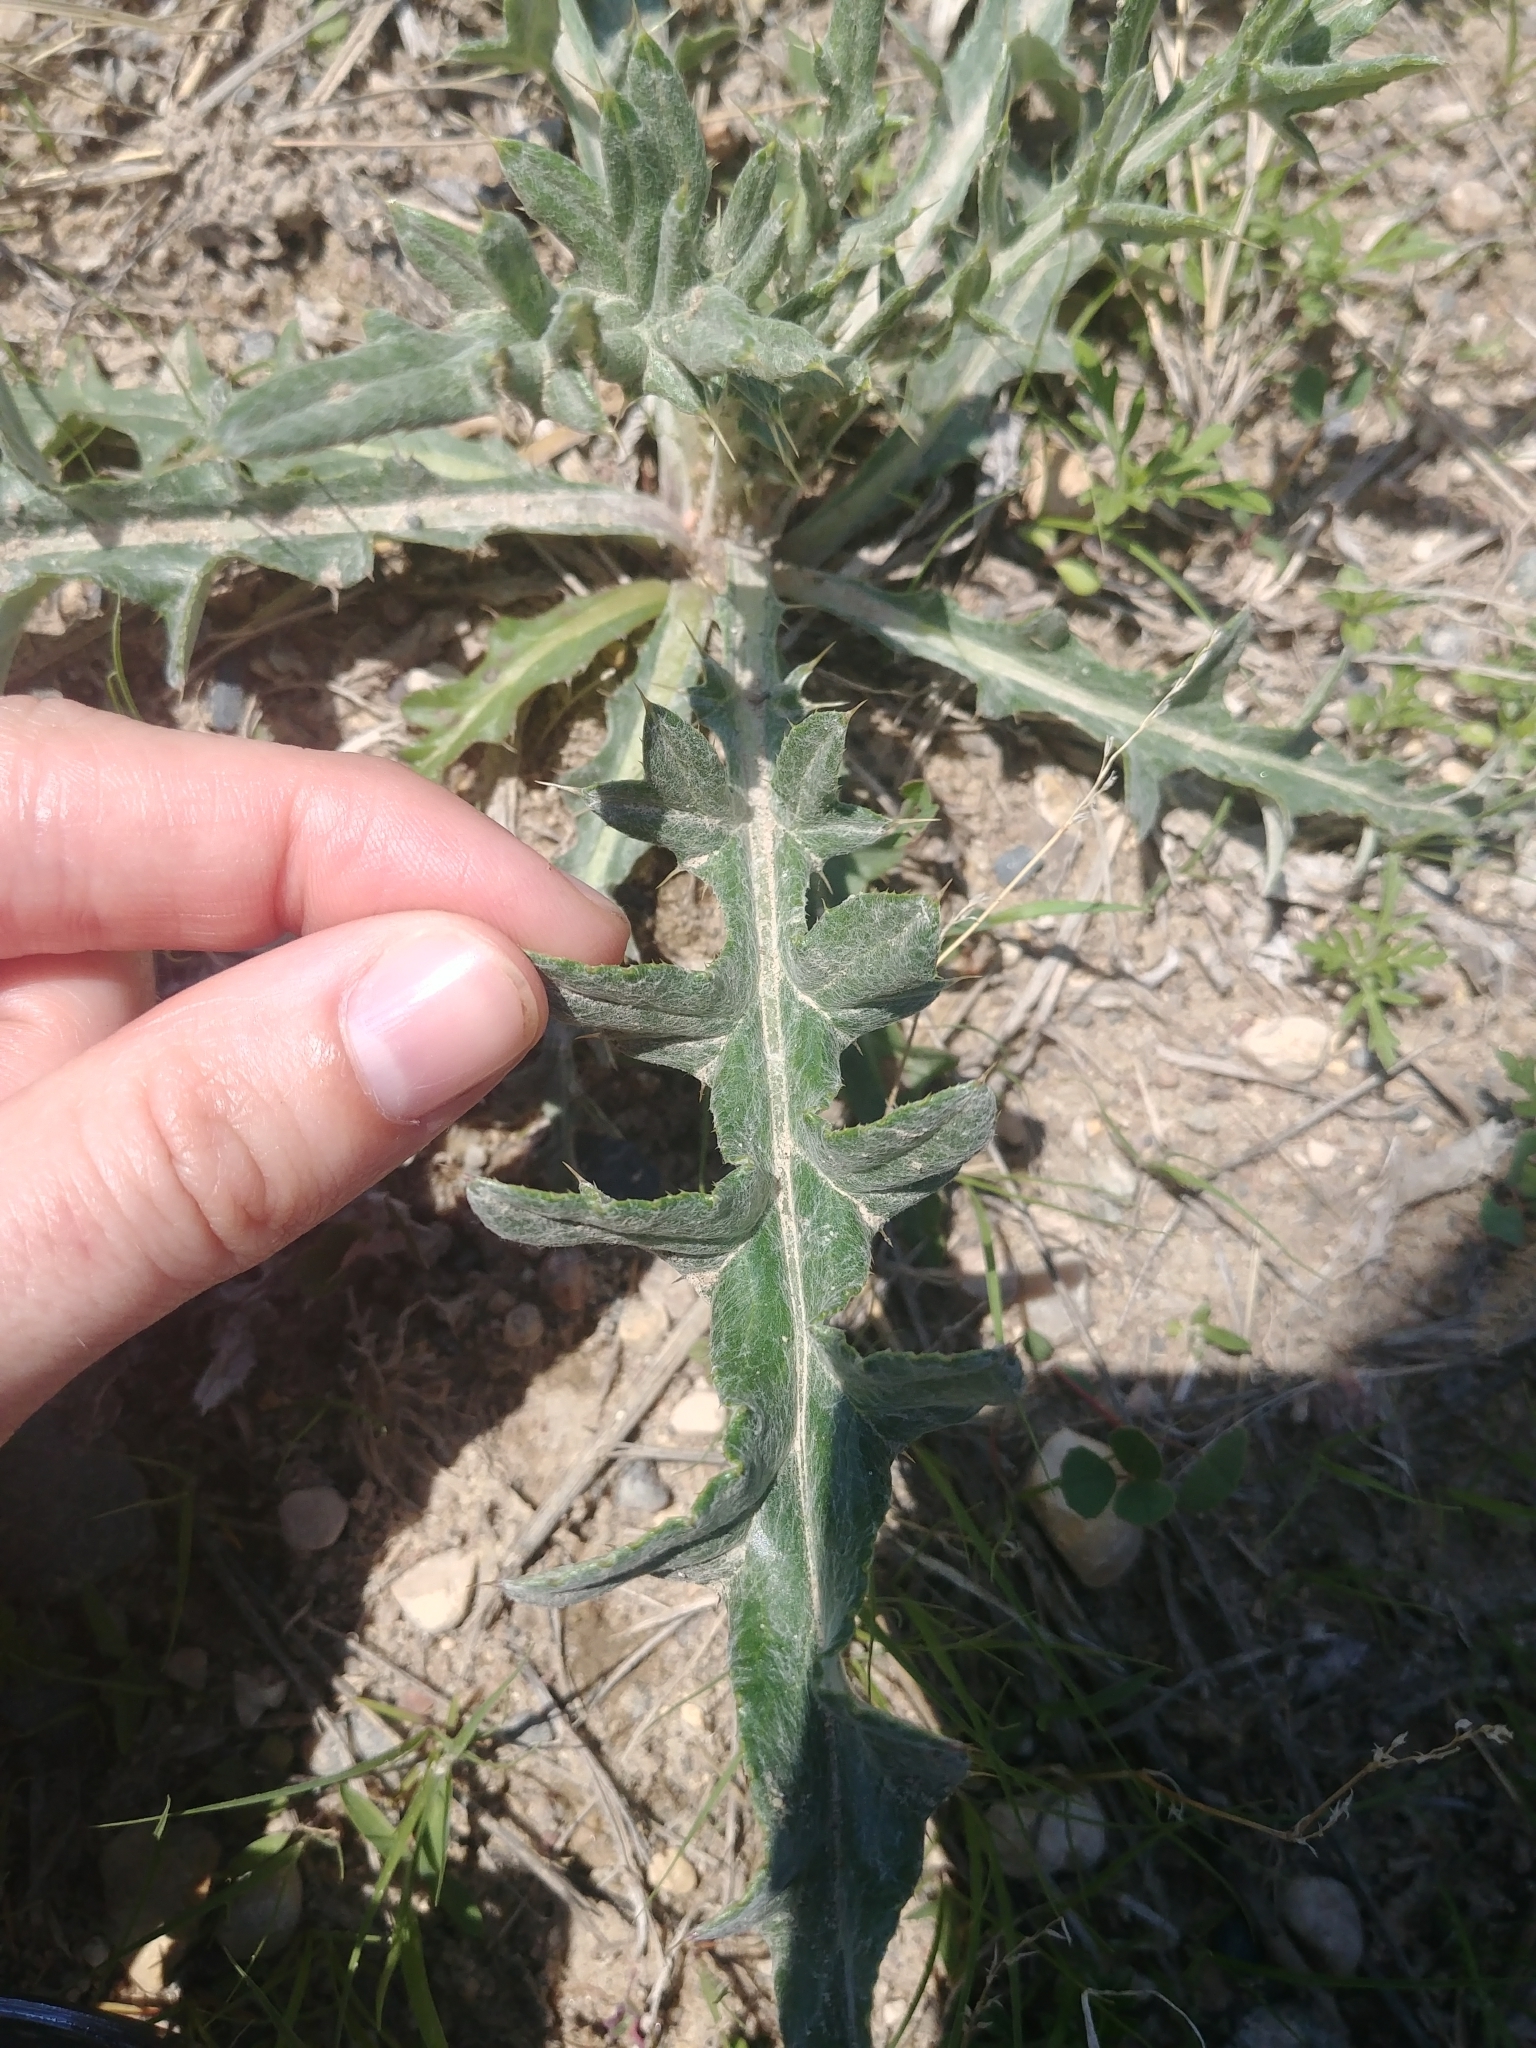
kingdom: Plantae
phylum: Tracheophyta
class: Magnoliopsida
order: Asterales
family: Asteraceae
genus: Cirsium
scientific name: Cirsium flodmanii
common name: Flodman's thistle
